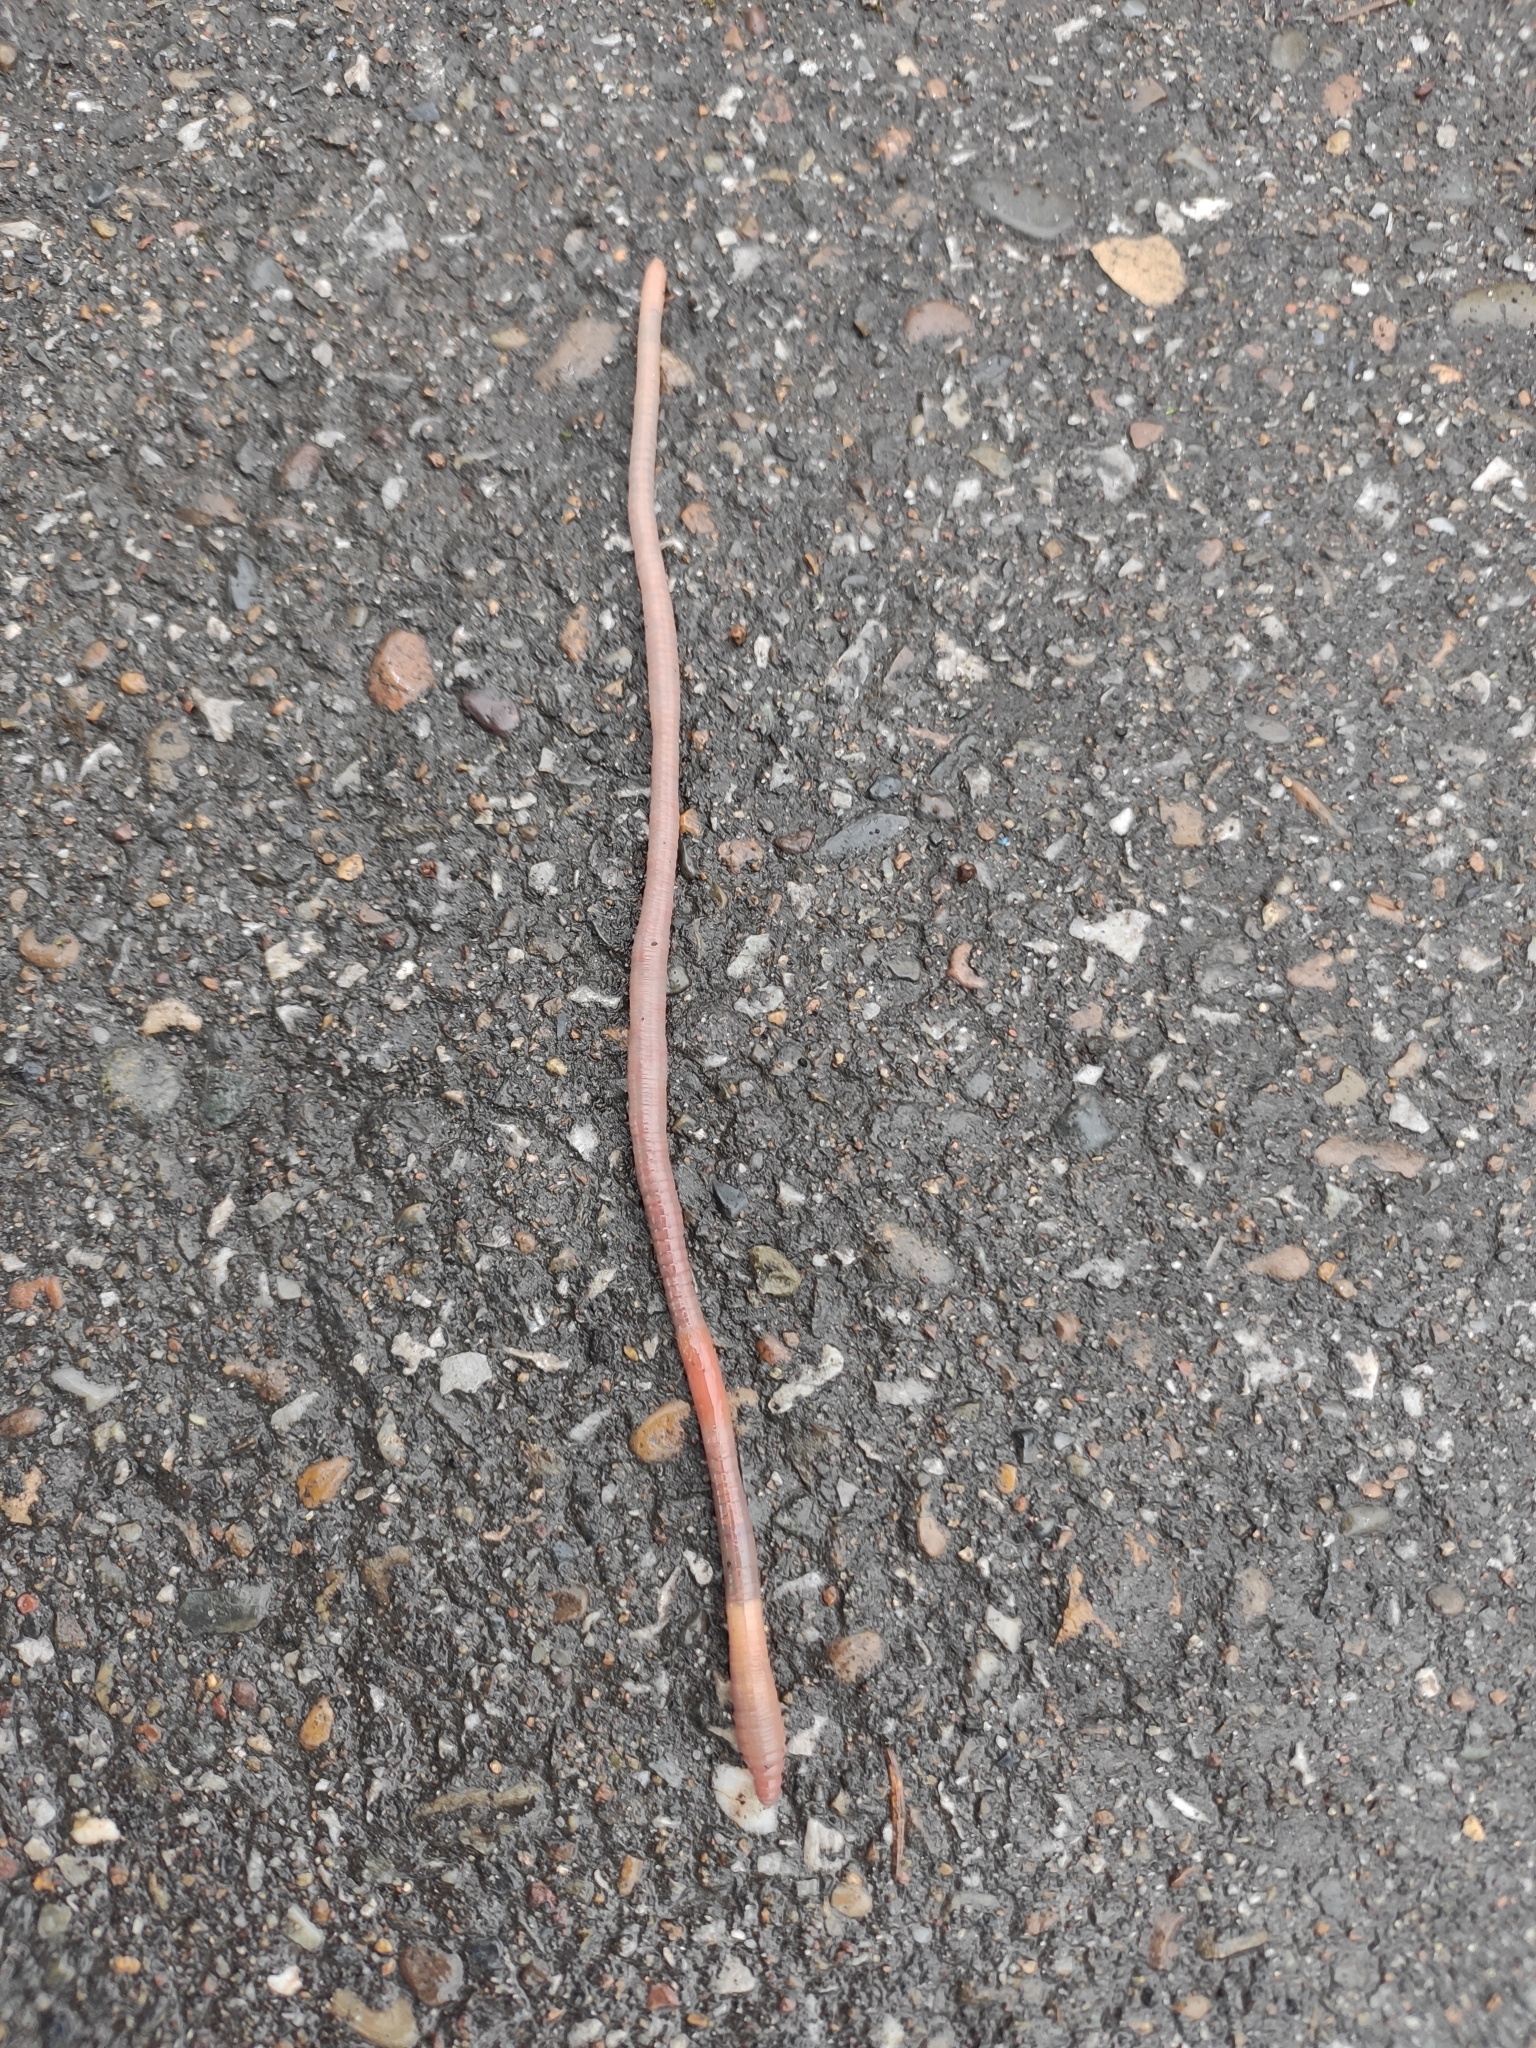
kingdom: Animalia
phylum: Annelida
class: Clitellata
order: Crassiclitellata
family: Lumbricidae
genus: Aporrectodea
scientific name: Aporrectodea caliginosa
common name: Grey worm
